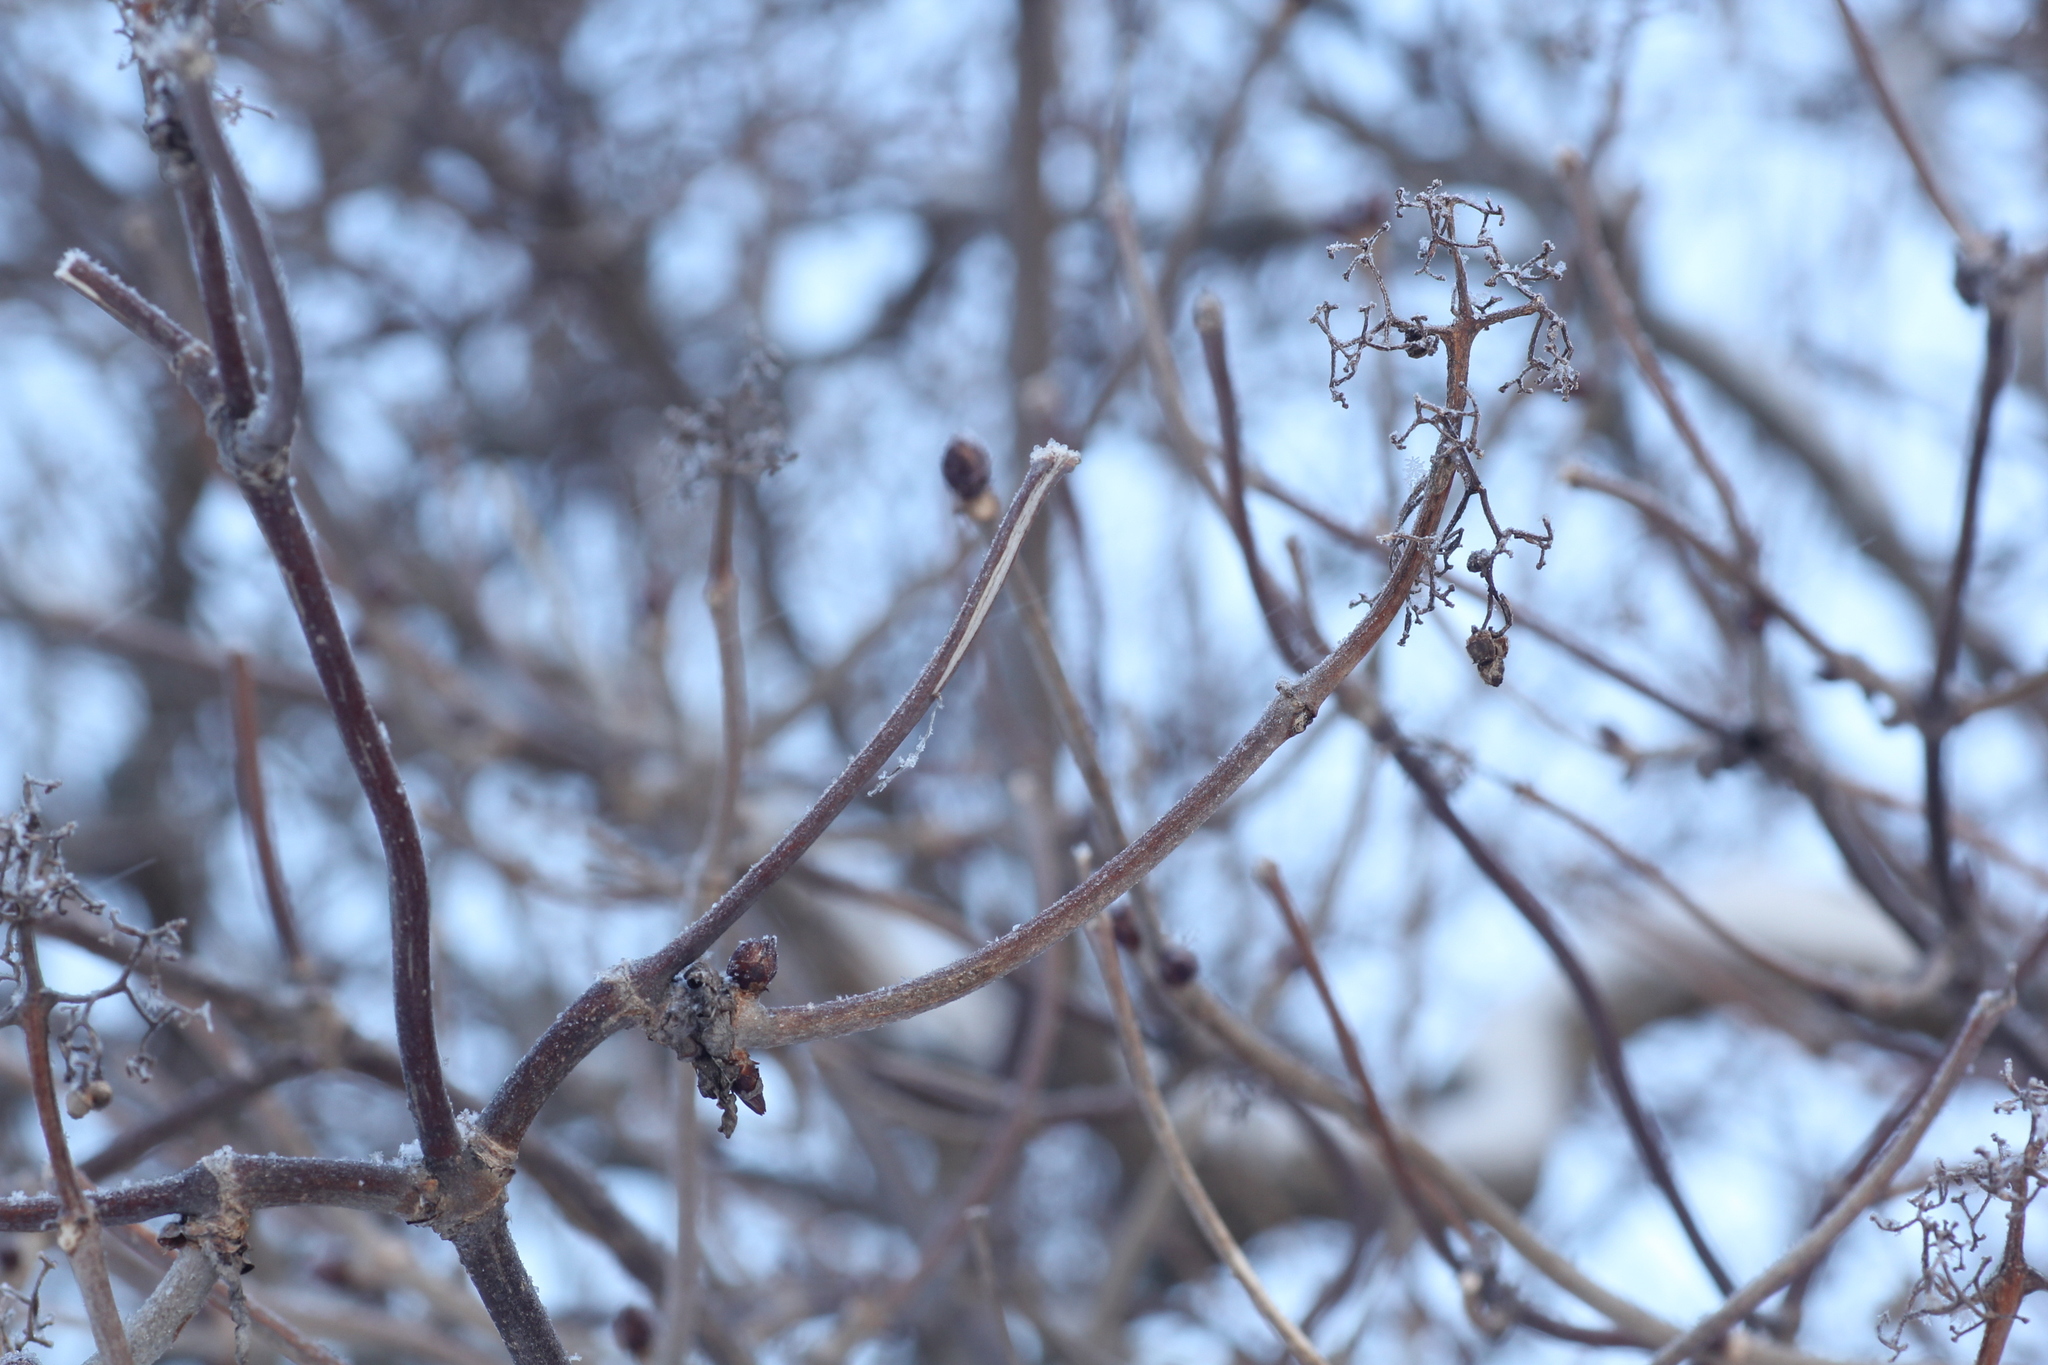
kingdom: Plantae
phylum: Tracheophyta
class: Magnoliopsida
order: Dipsacales
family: Viburnaceae
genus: Sambucus
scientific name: Sambucus sibirica
